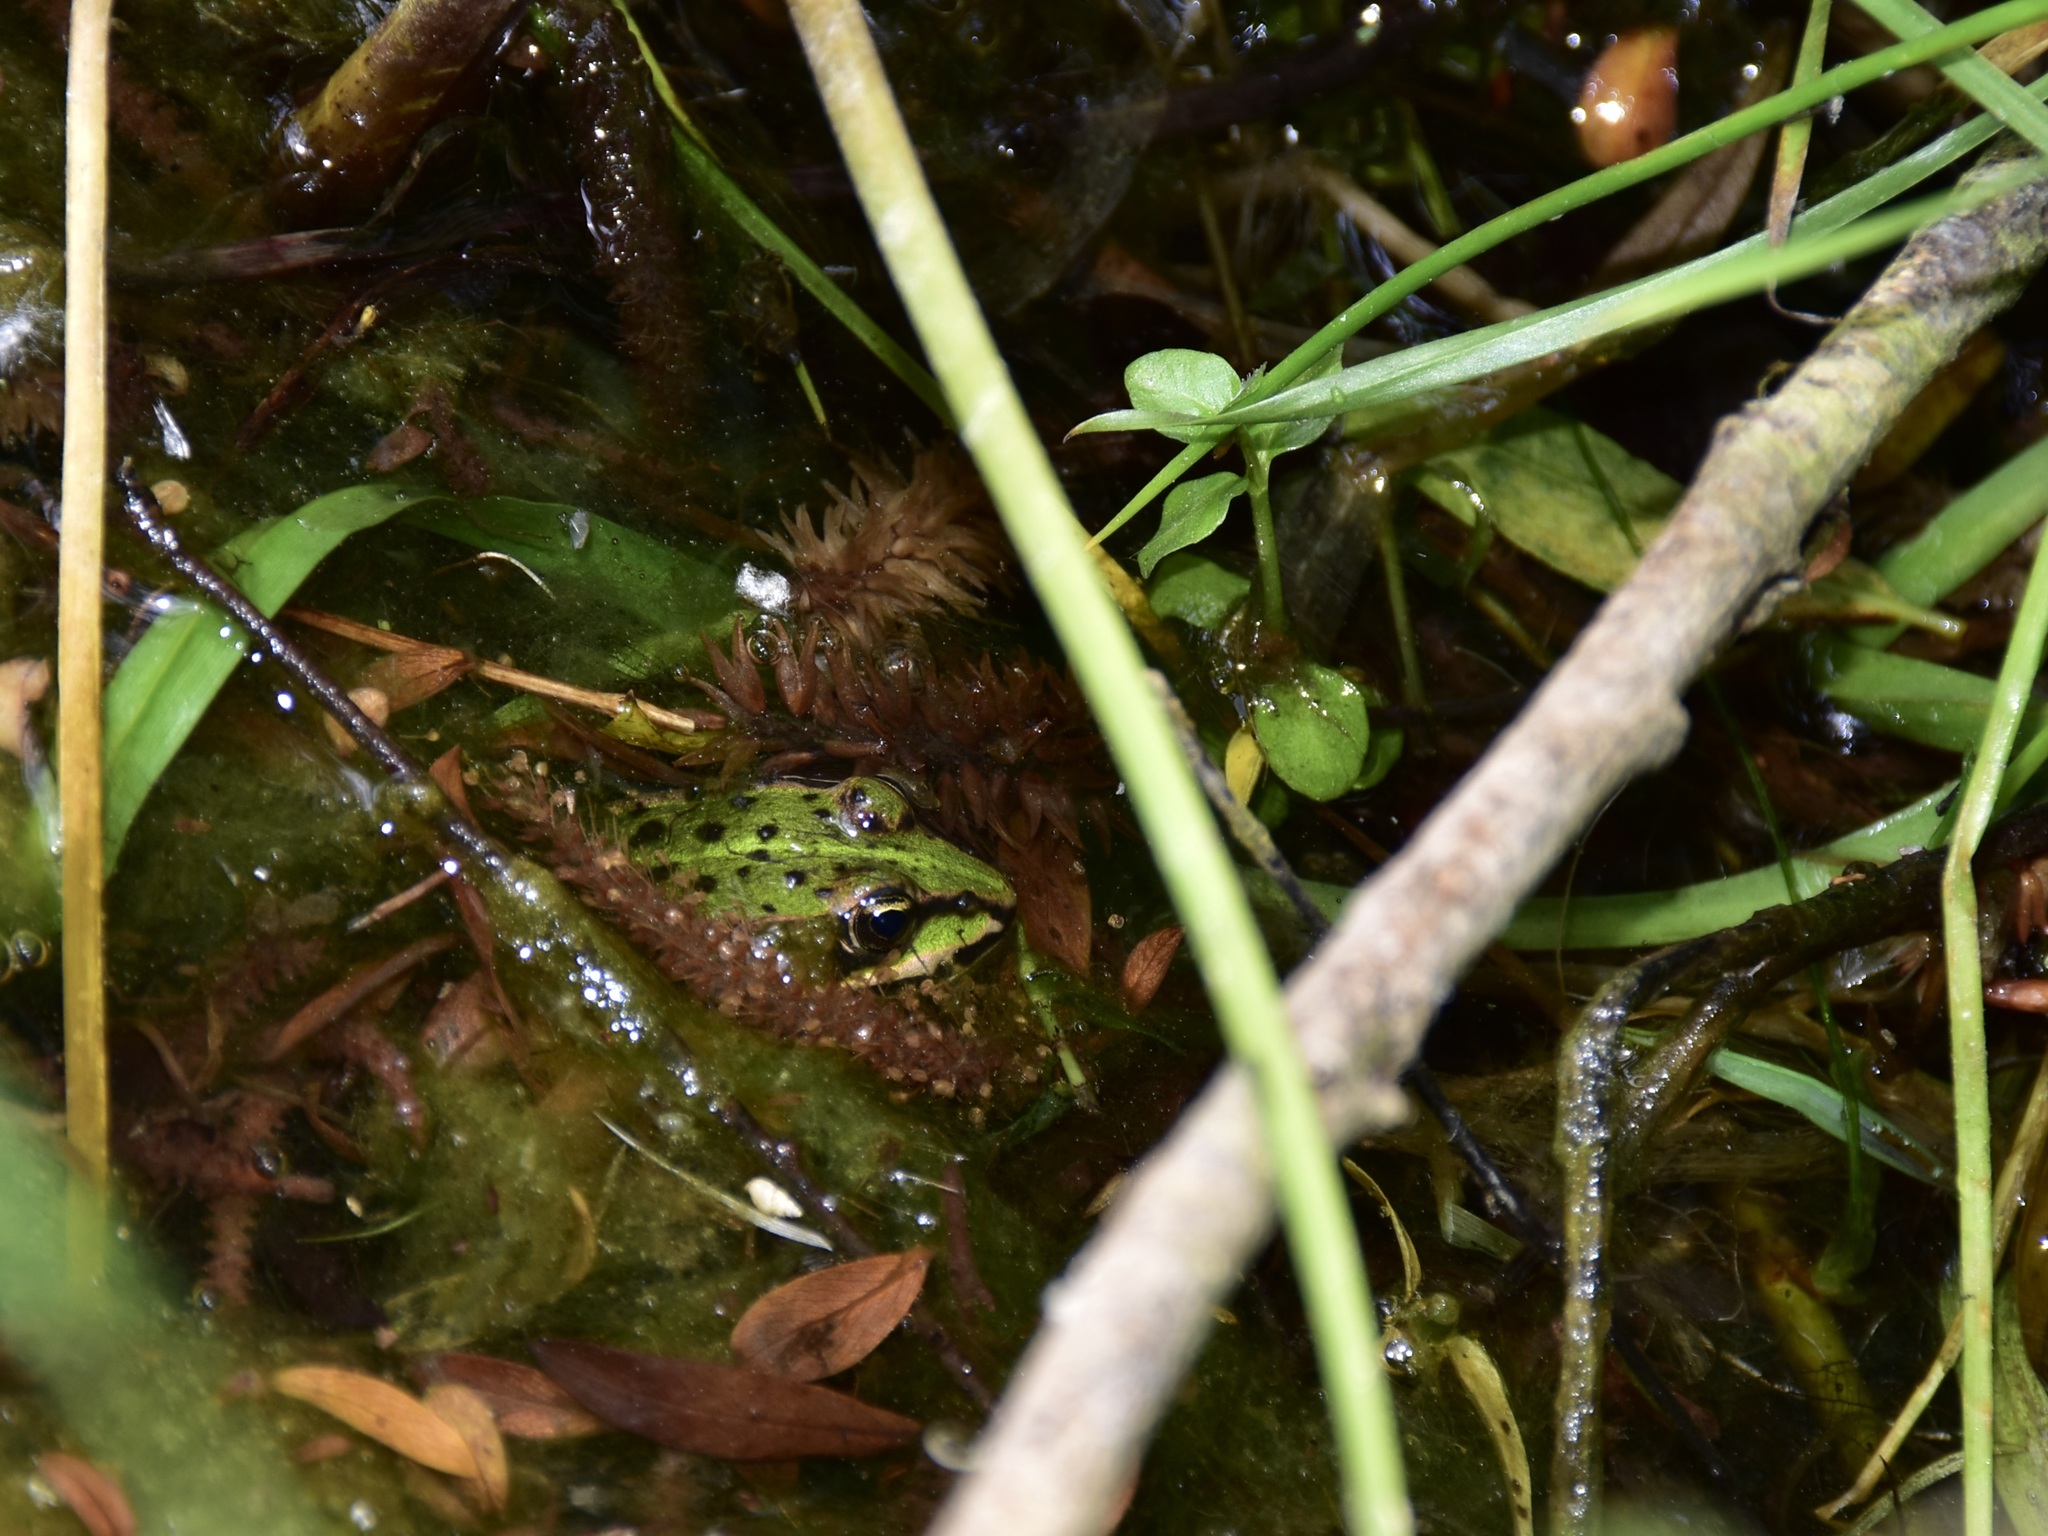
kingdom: Animalia
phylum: Chordata
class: Amphibia
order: Anura
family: Ranidae
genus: Pelophylax
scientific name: Pelophylax
